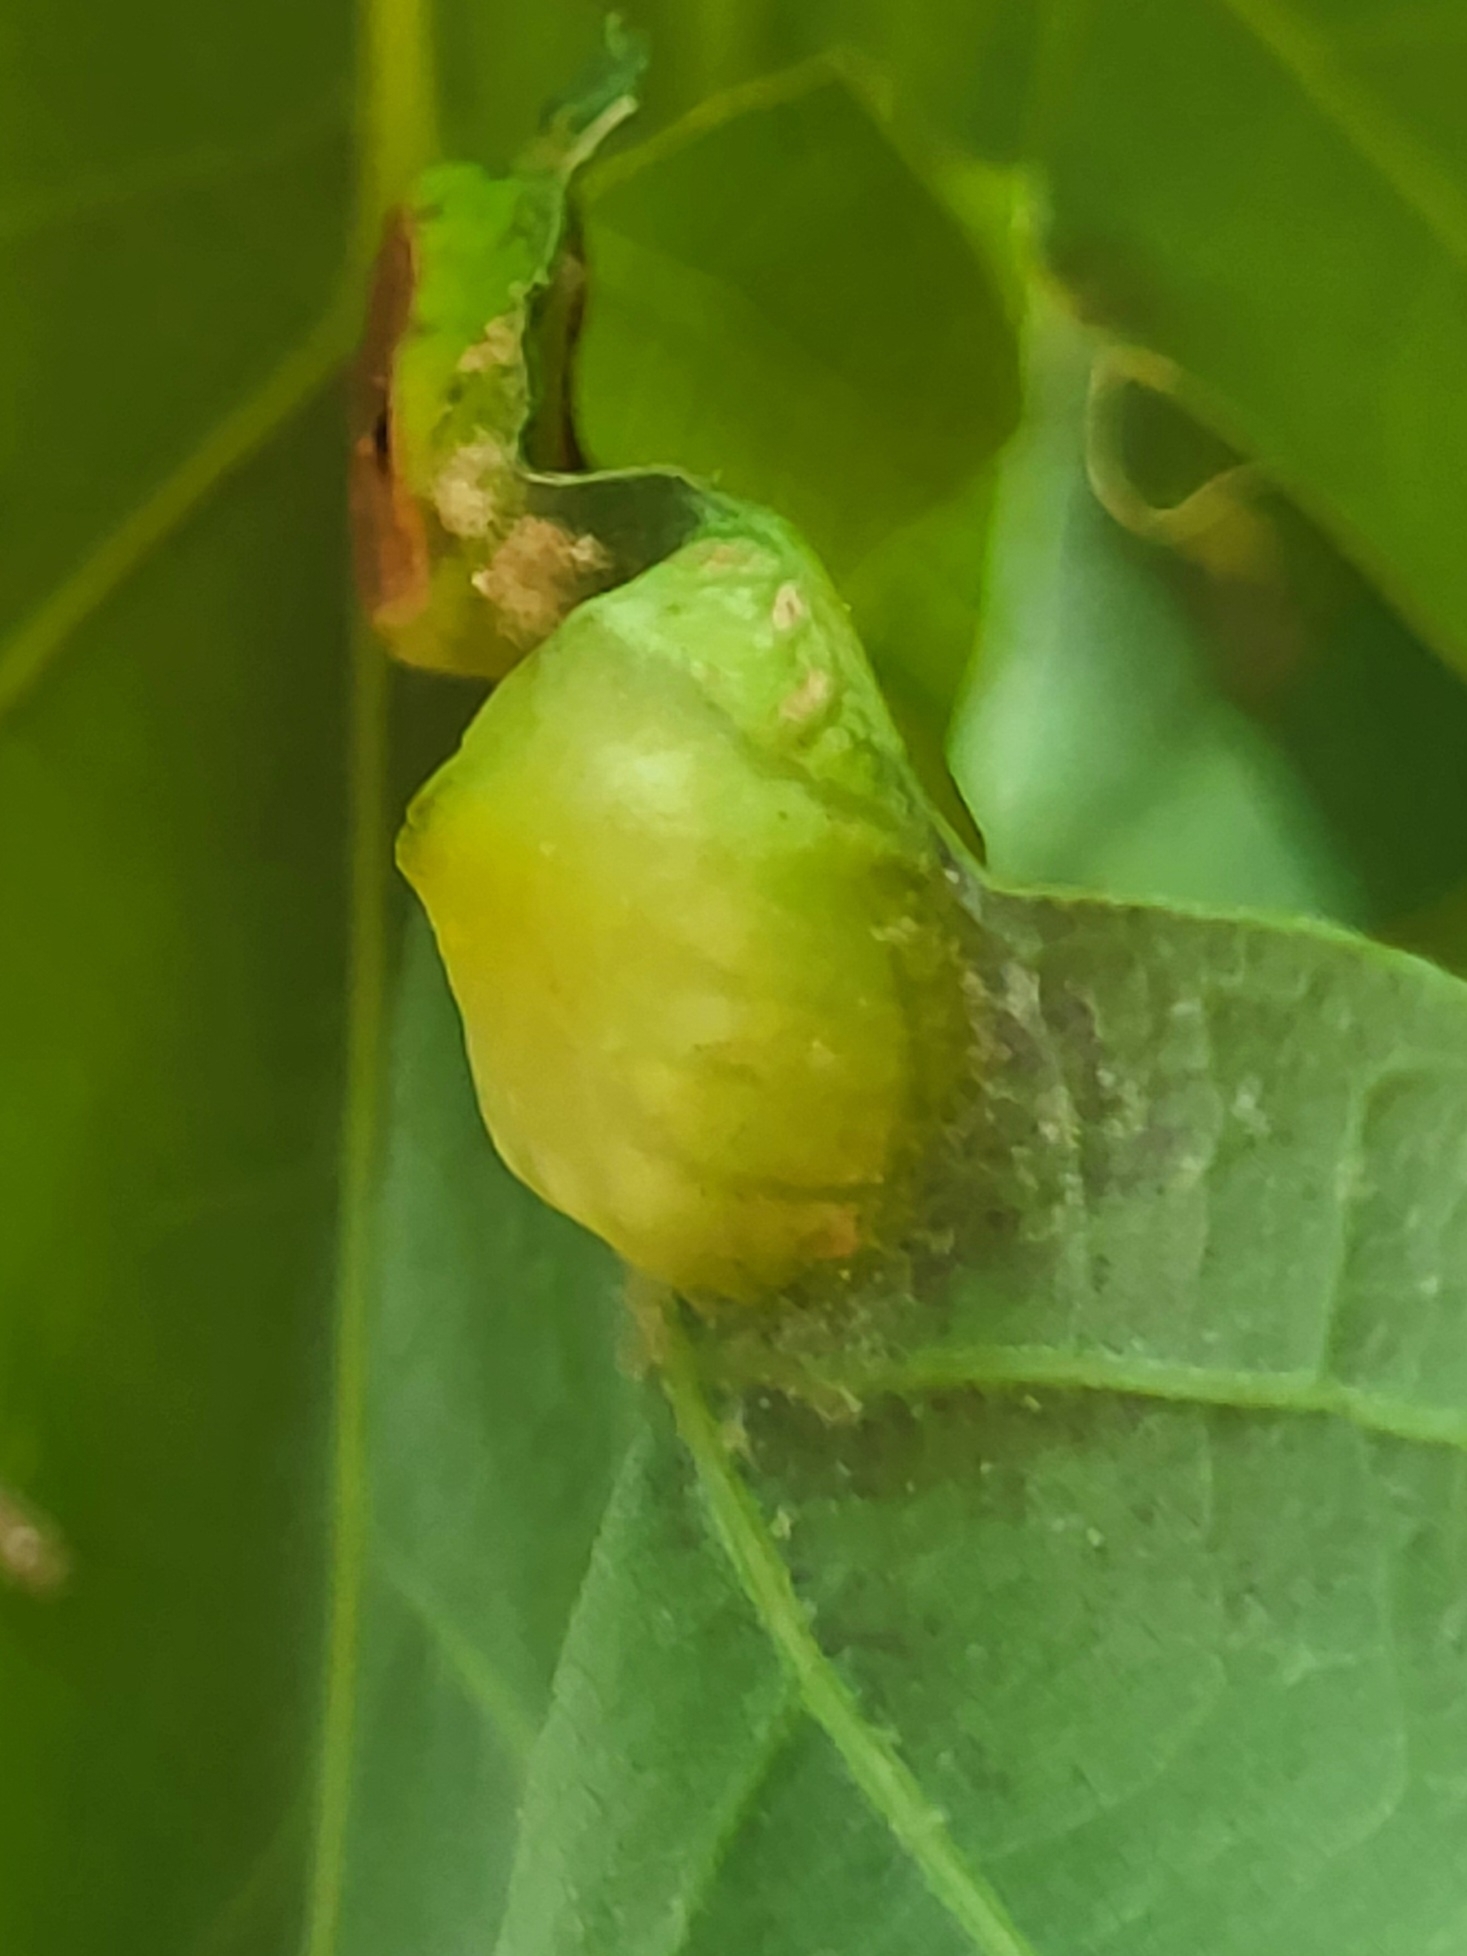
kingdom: Animalia
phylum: Arthropoda
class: Insecta
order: Hymenoptera
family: Cynipidae
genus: Callirhytis
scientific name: Callirhytis
